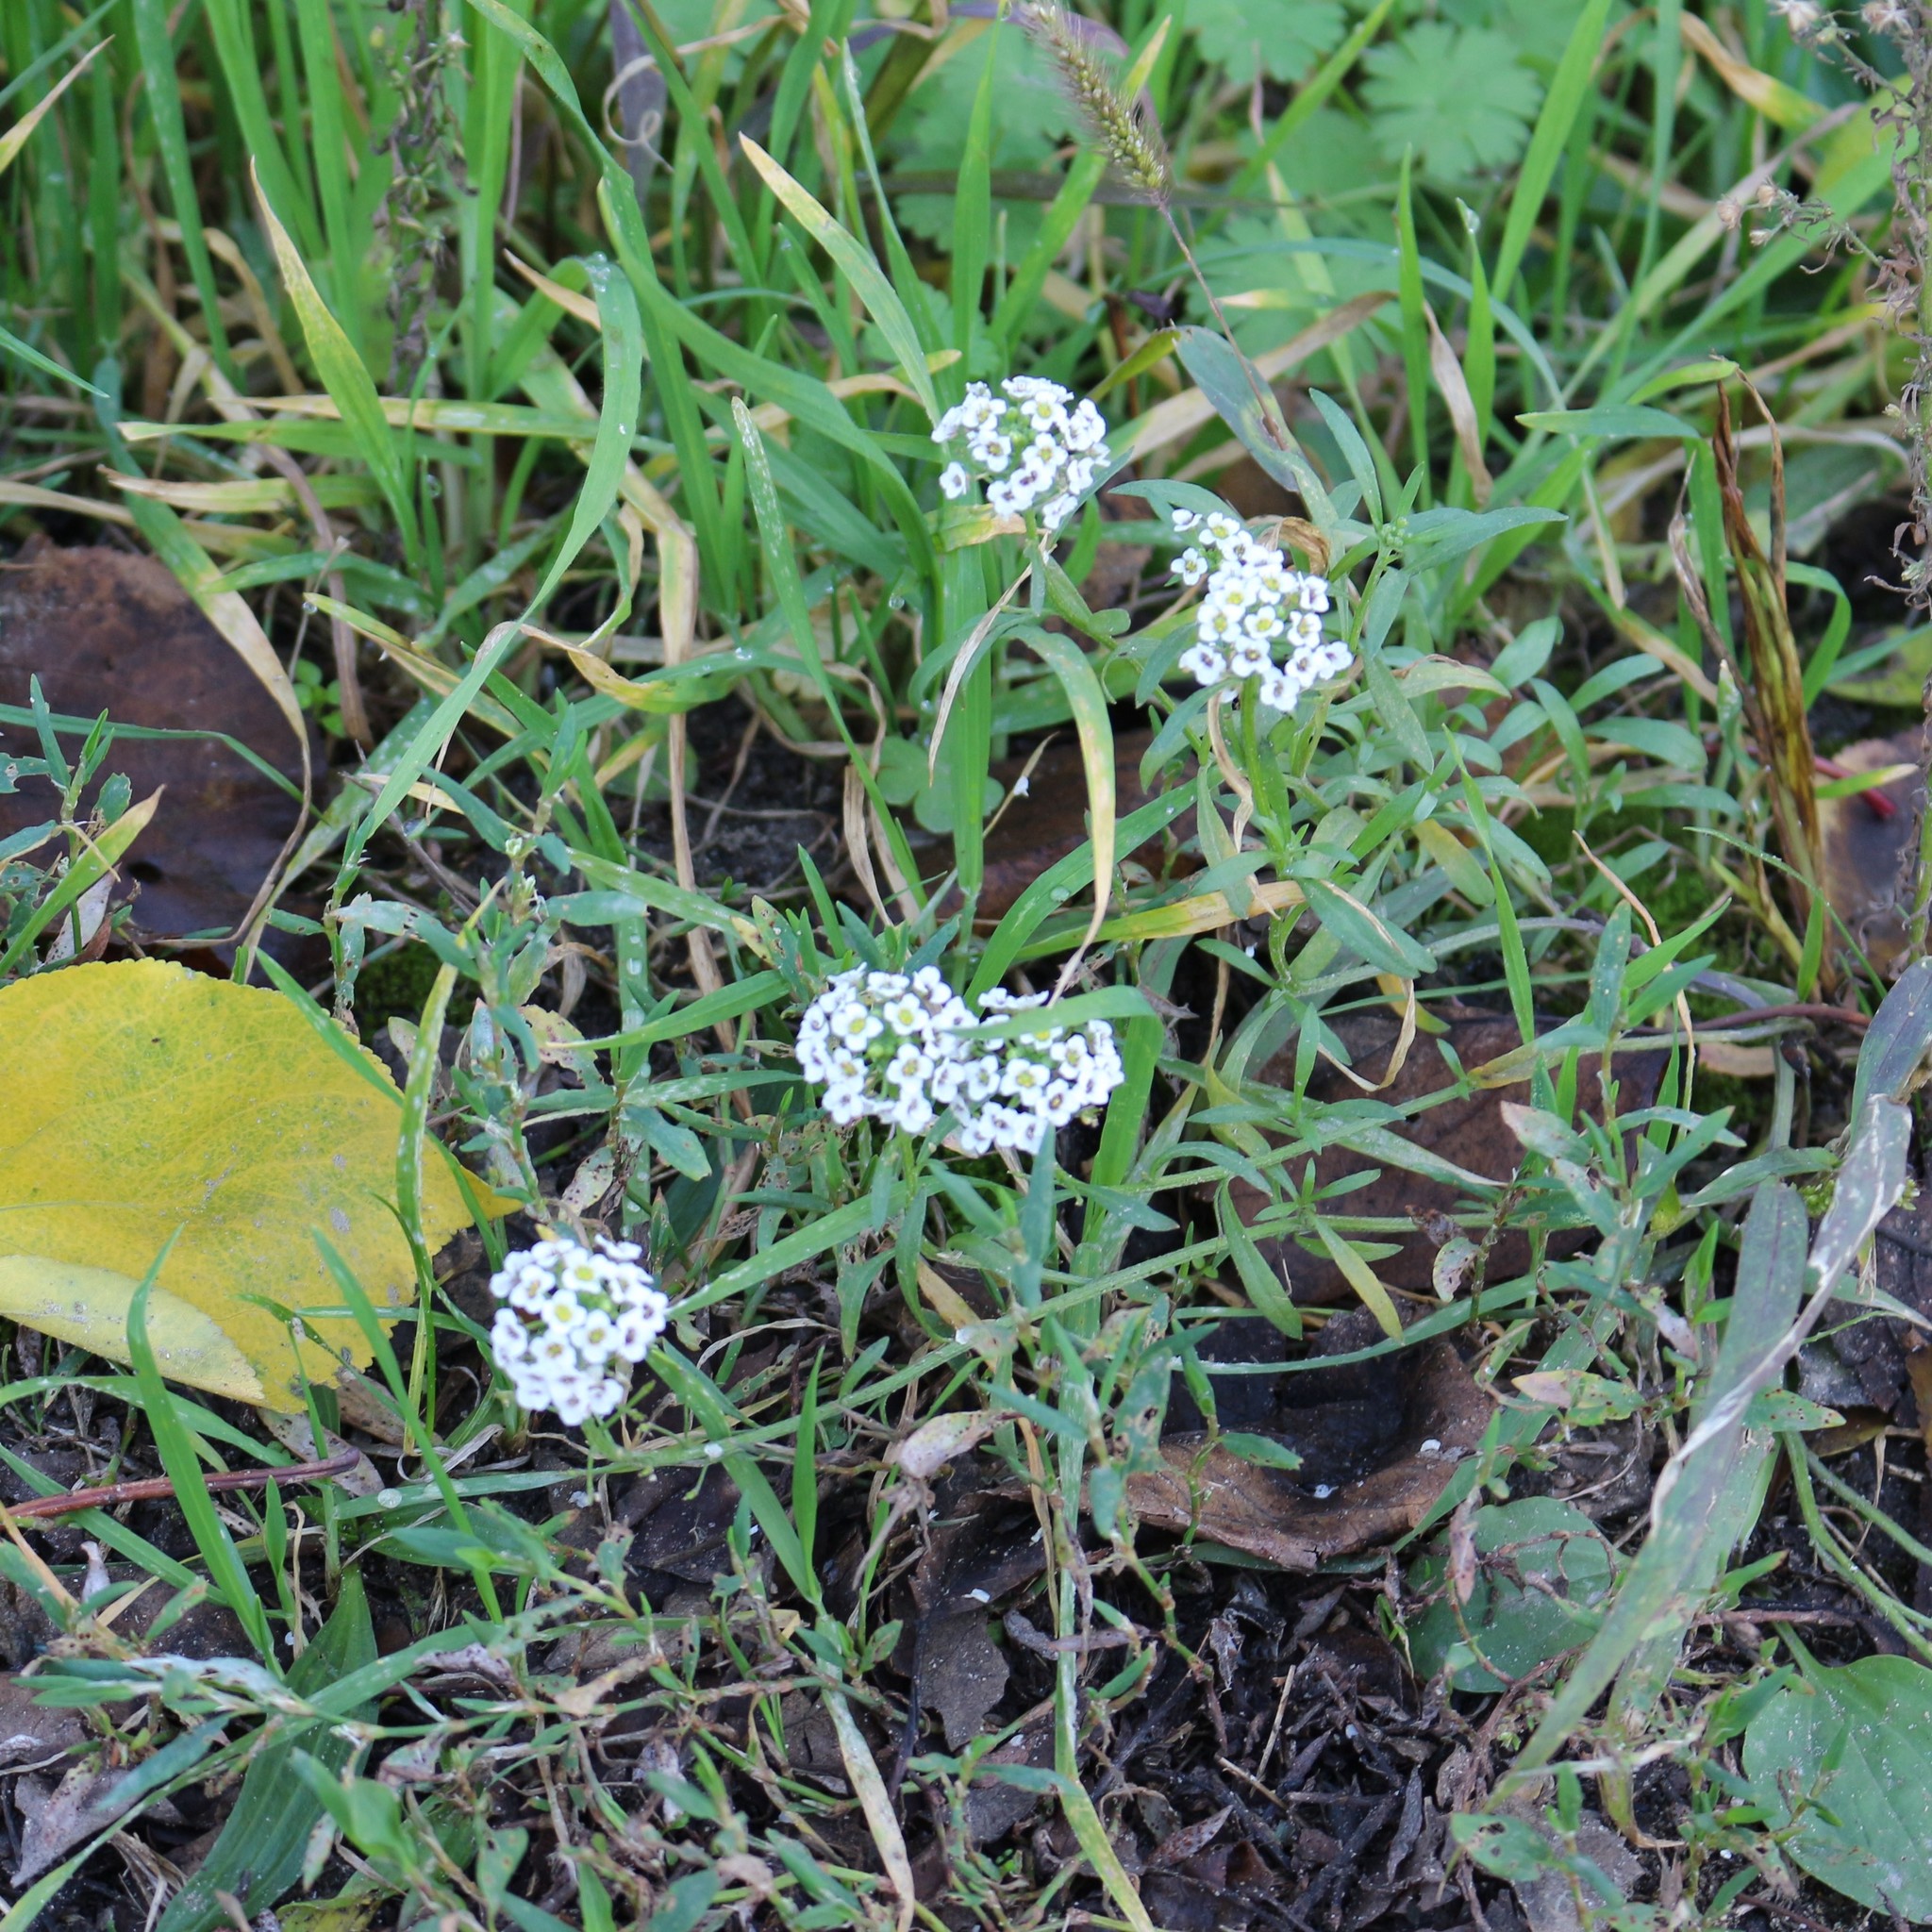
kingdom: Plantae
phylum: Tracheophyta
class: Magnoliopsida
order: Brassicales
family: Brassicaceae
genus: Lobularia
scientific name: Lobularia maritima
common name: Sweet alison
